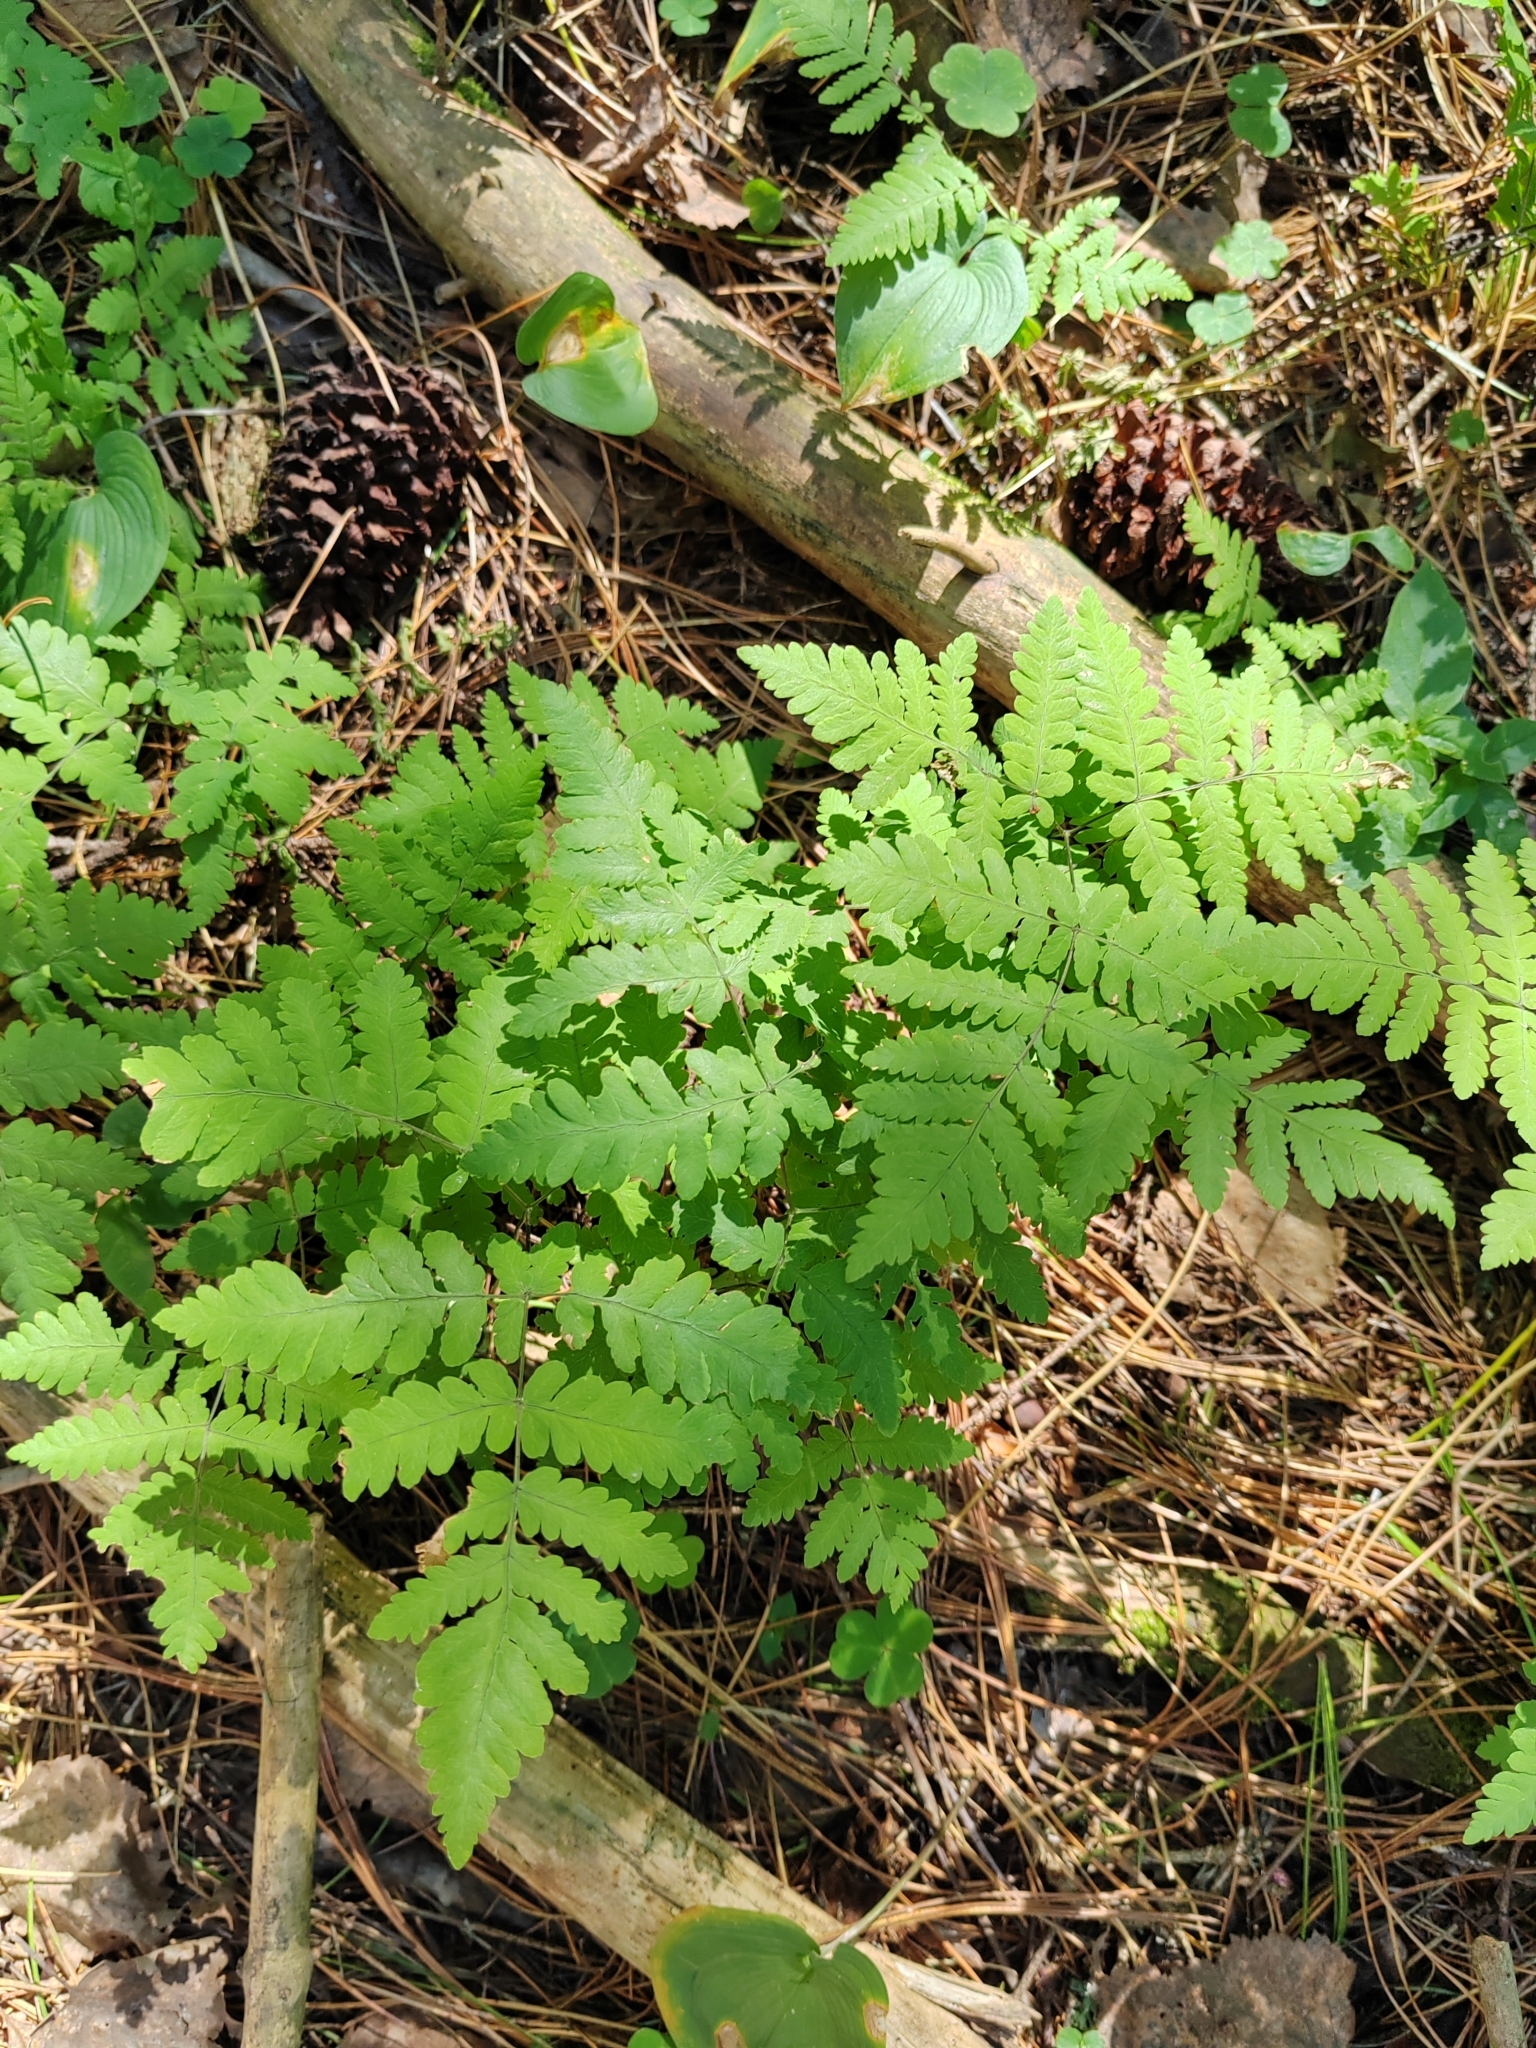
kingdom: Plantae
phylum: Tracheophyta
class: Polypodiopsida
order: Polypodiales
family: Cystopteridaceae
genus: Gymnocarpium
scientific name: Gymnocarpium dryopteris
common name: Oak fern
